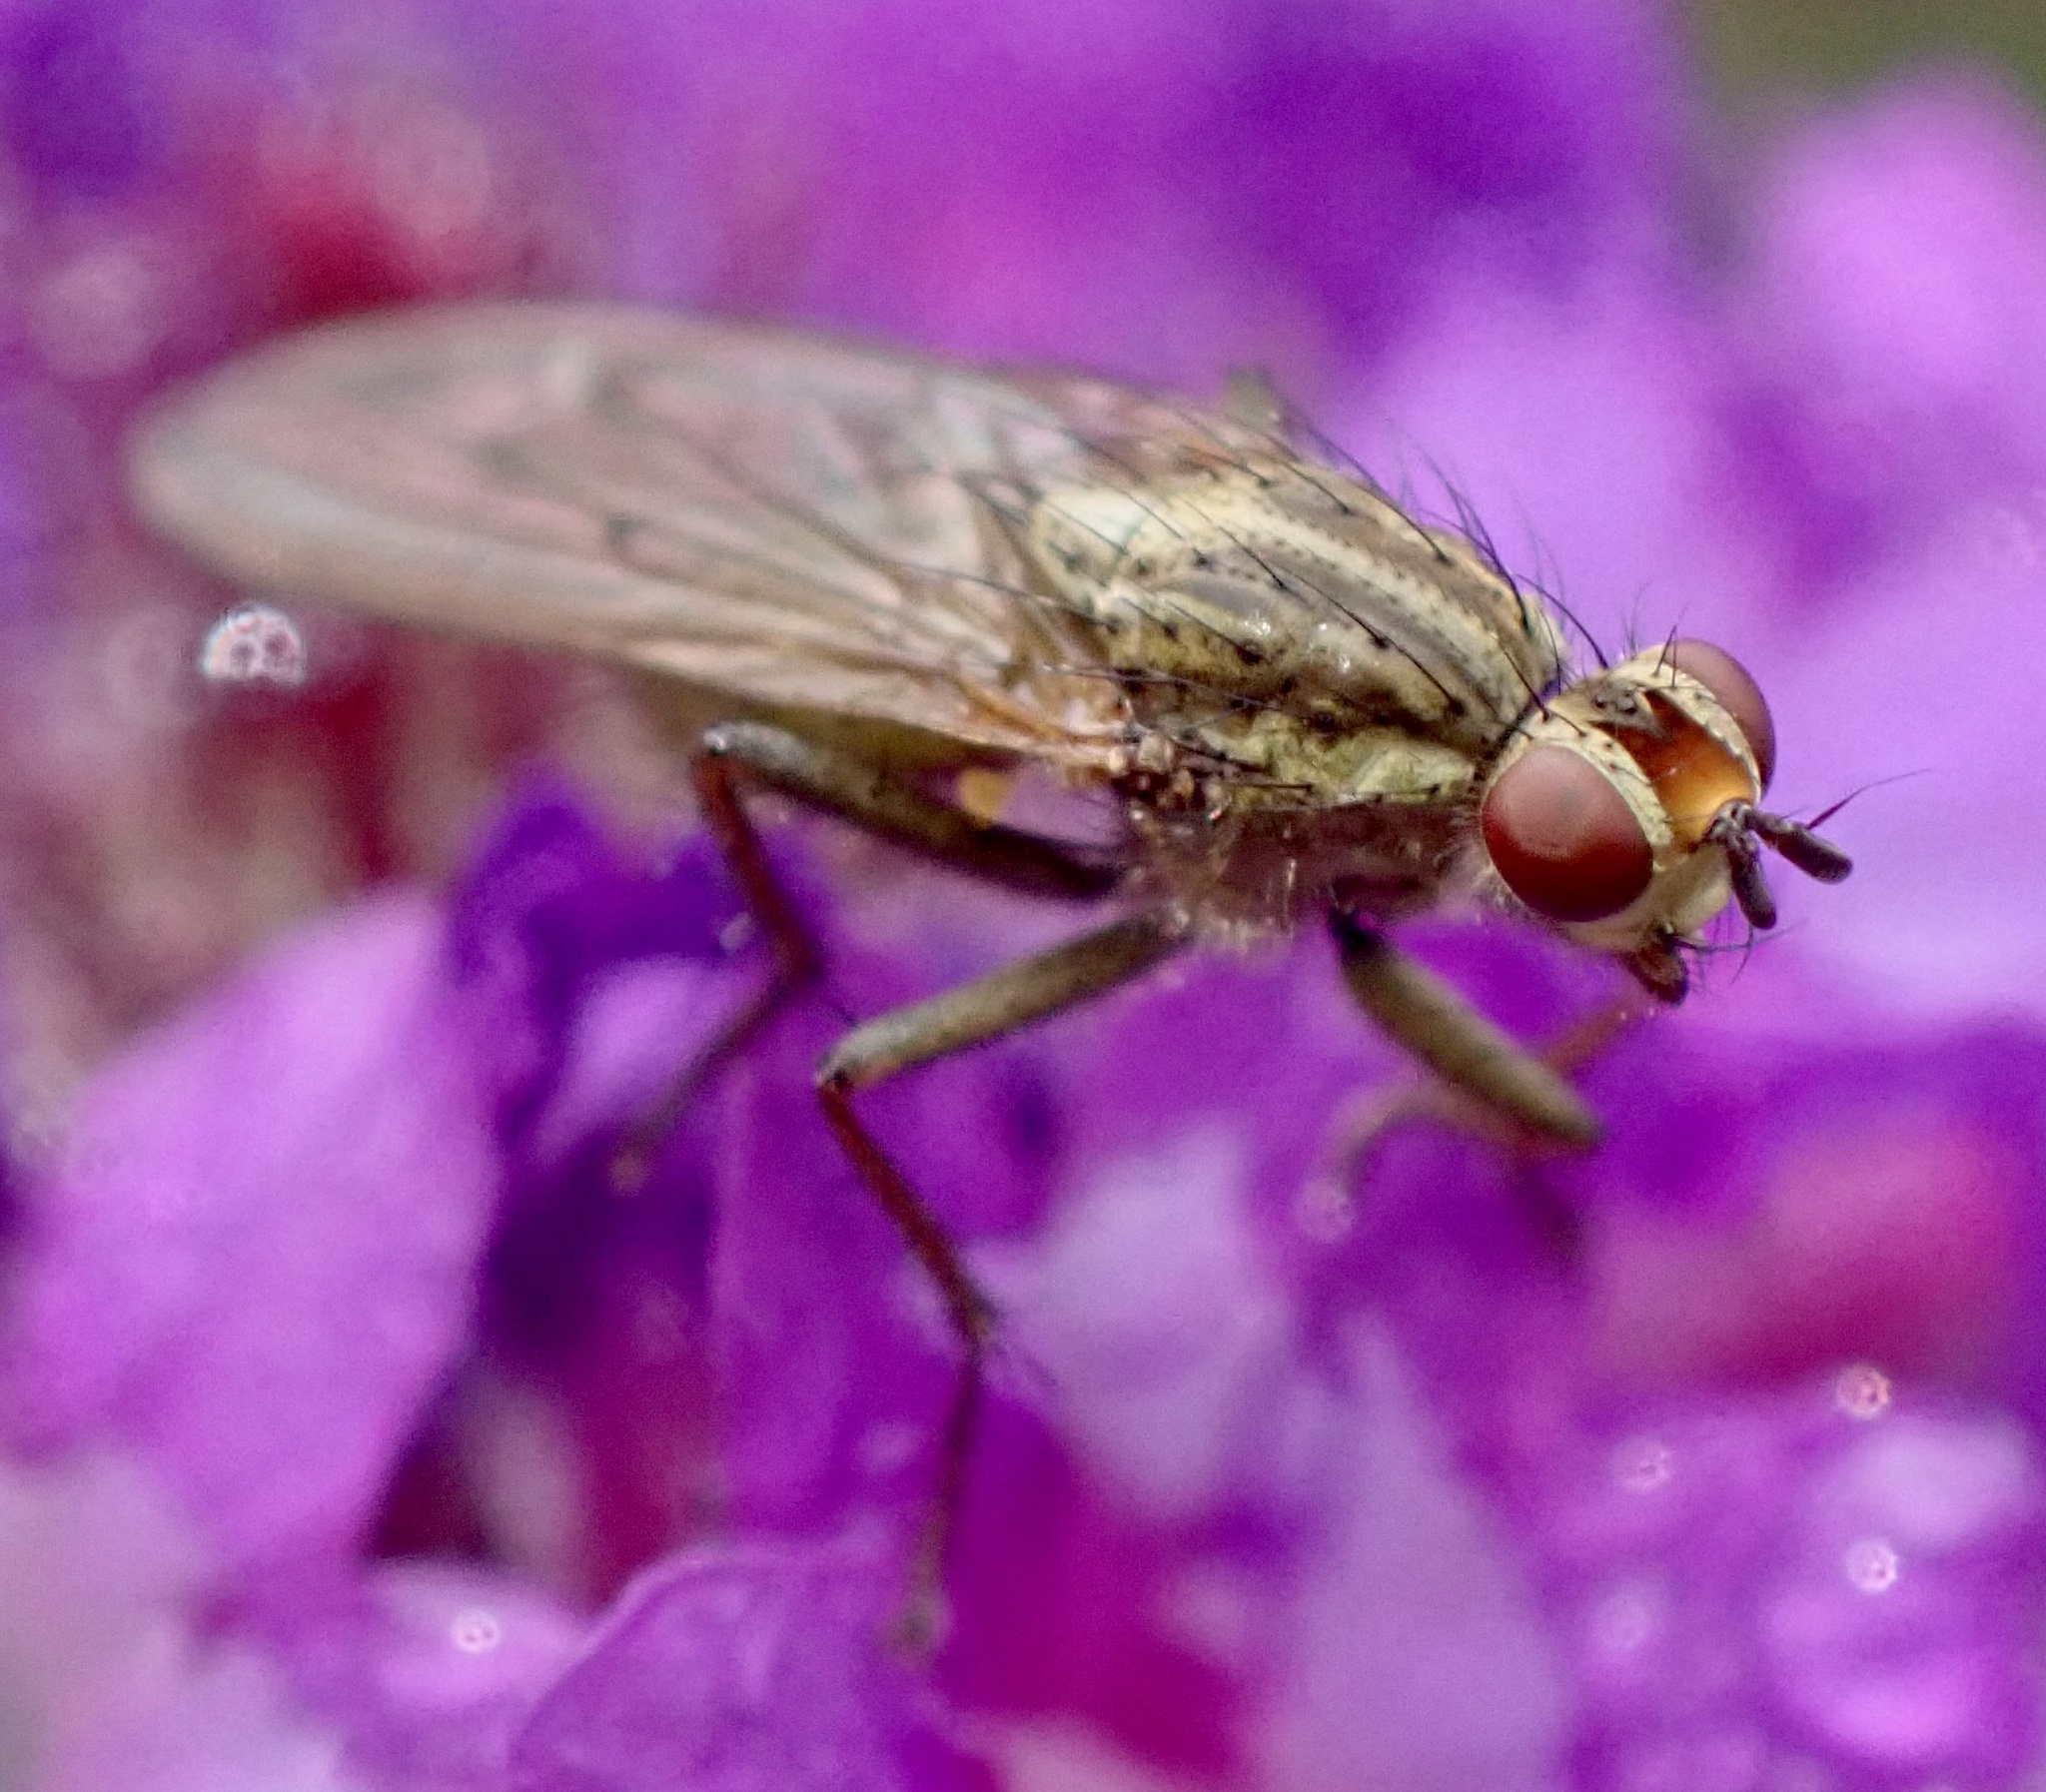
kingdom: Animalia
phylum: Arthropoda
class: Insecta
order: Diptera
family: Scathophagidae
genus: Scathophaga
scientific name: Scathophaga stercoraria
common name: Yellow dung fly
